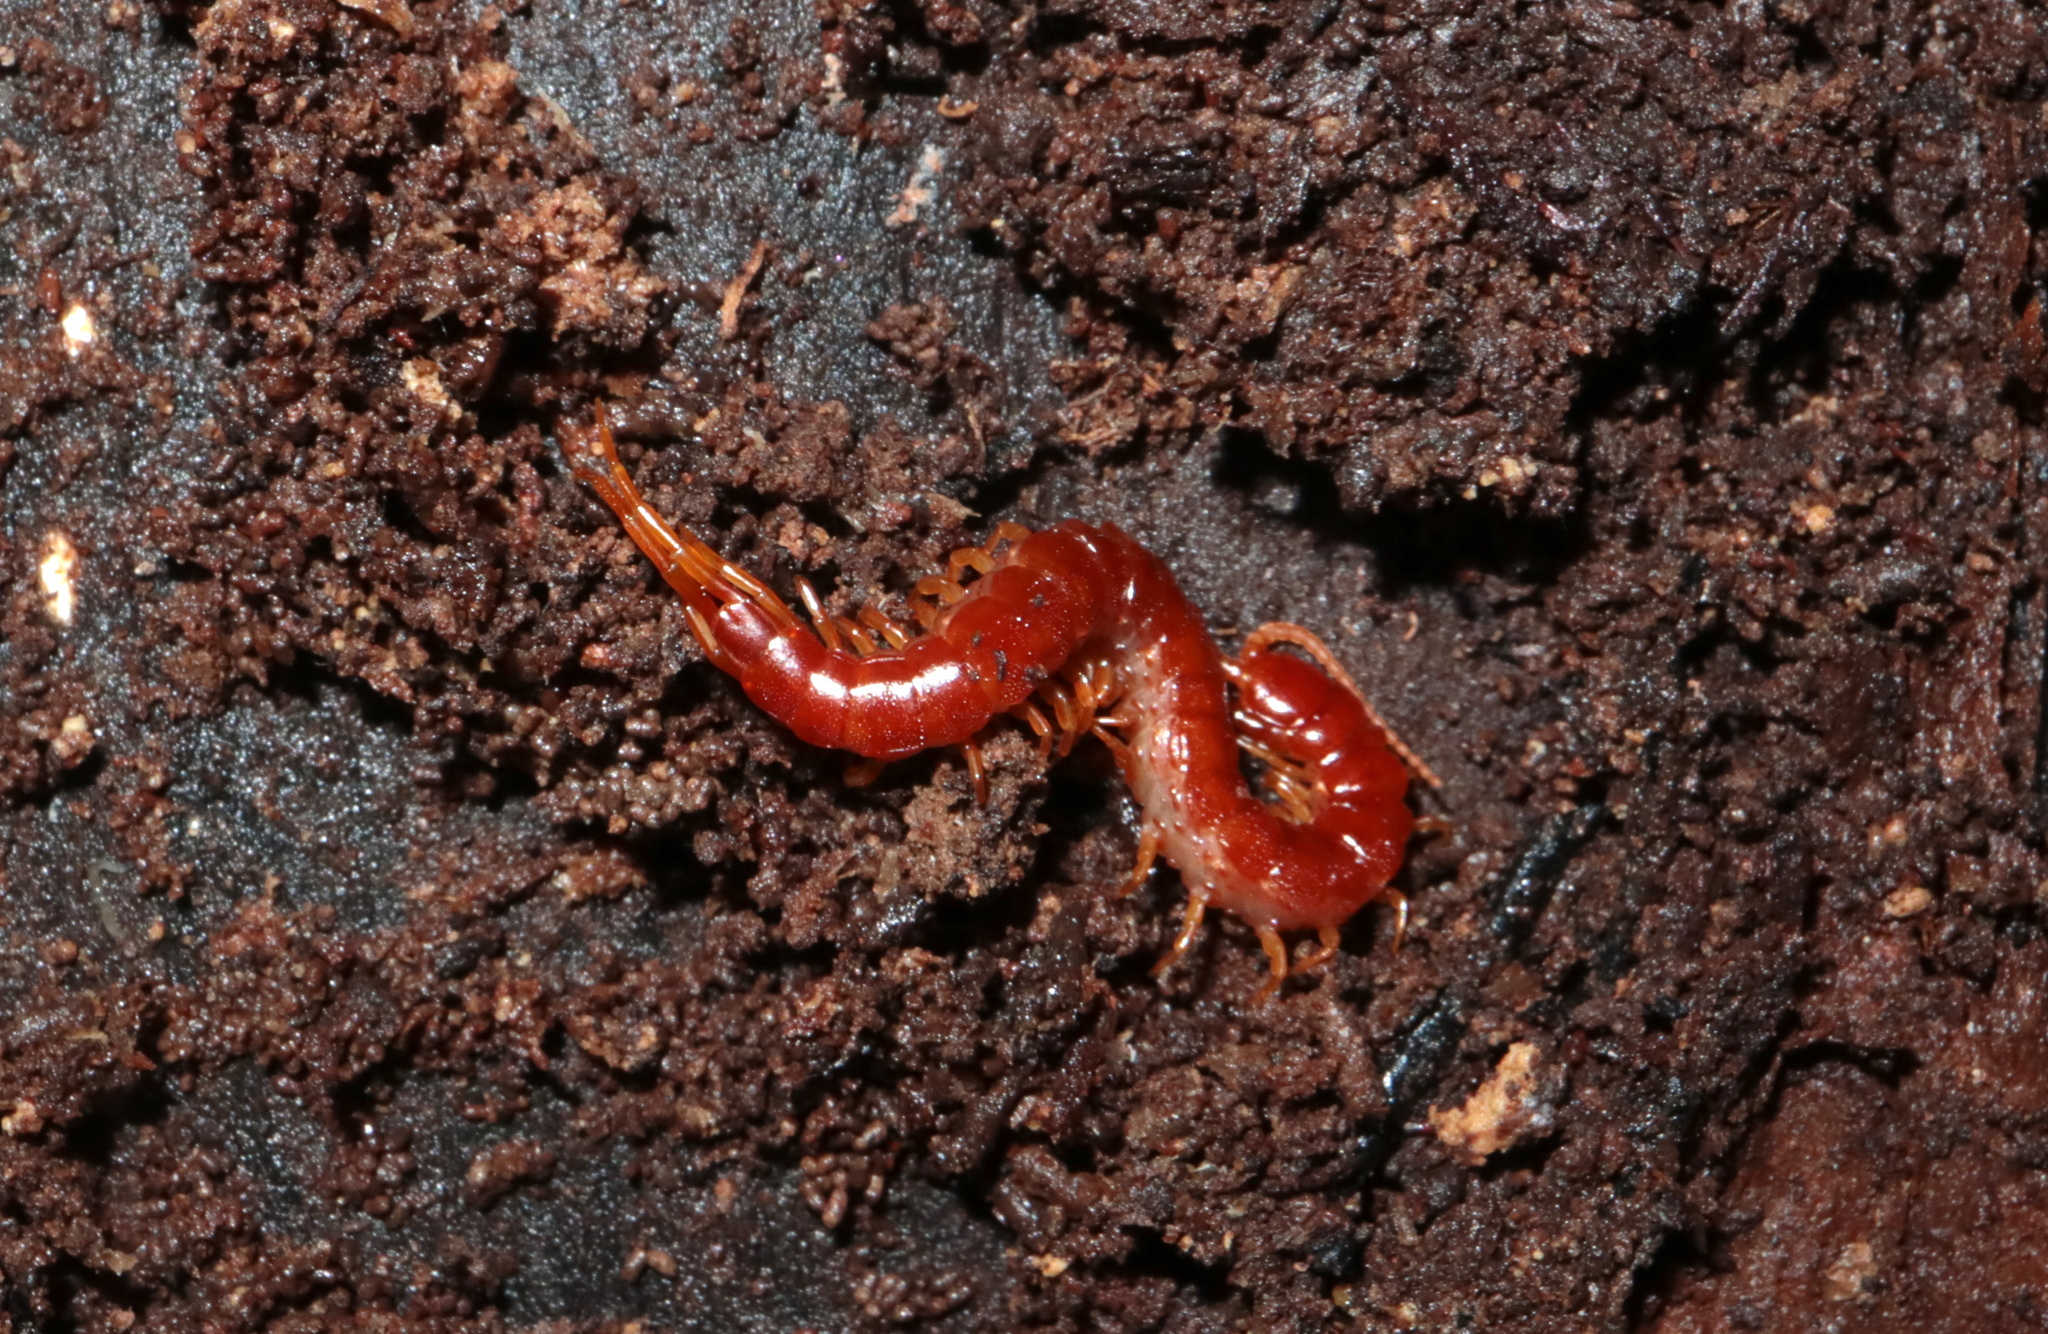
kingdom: Animalia
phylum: Arthropoda
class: Chilopoda
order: Scolopendromorpha
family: Scolopocryptopidae
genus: Scolopocryptops
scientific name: Scolopocryptops sexspinosus
